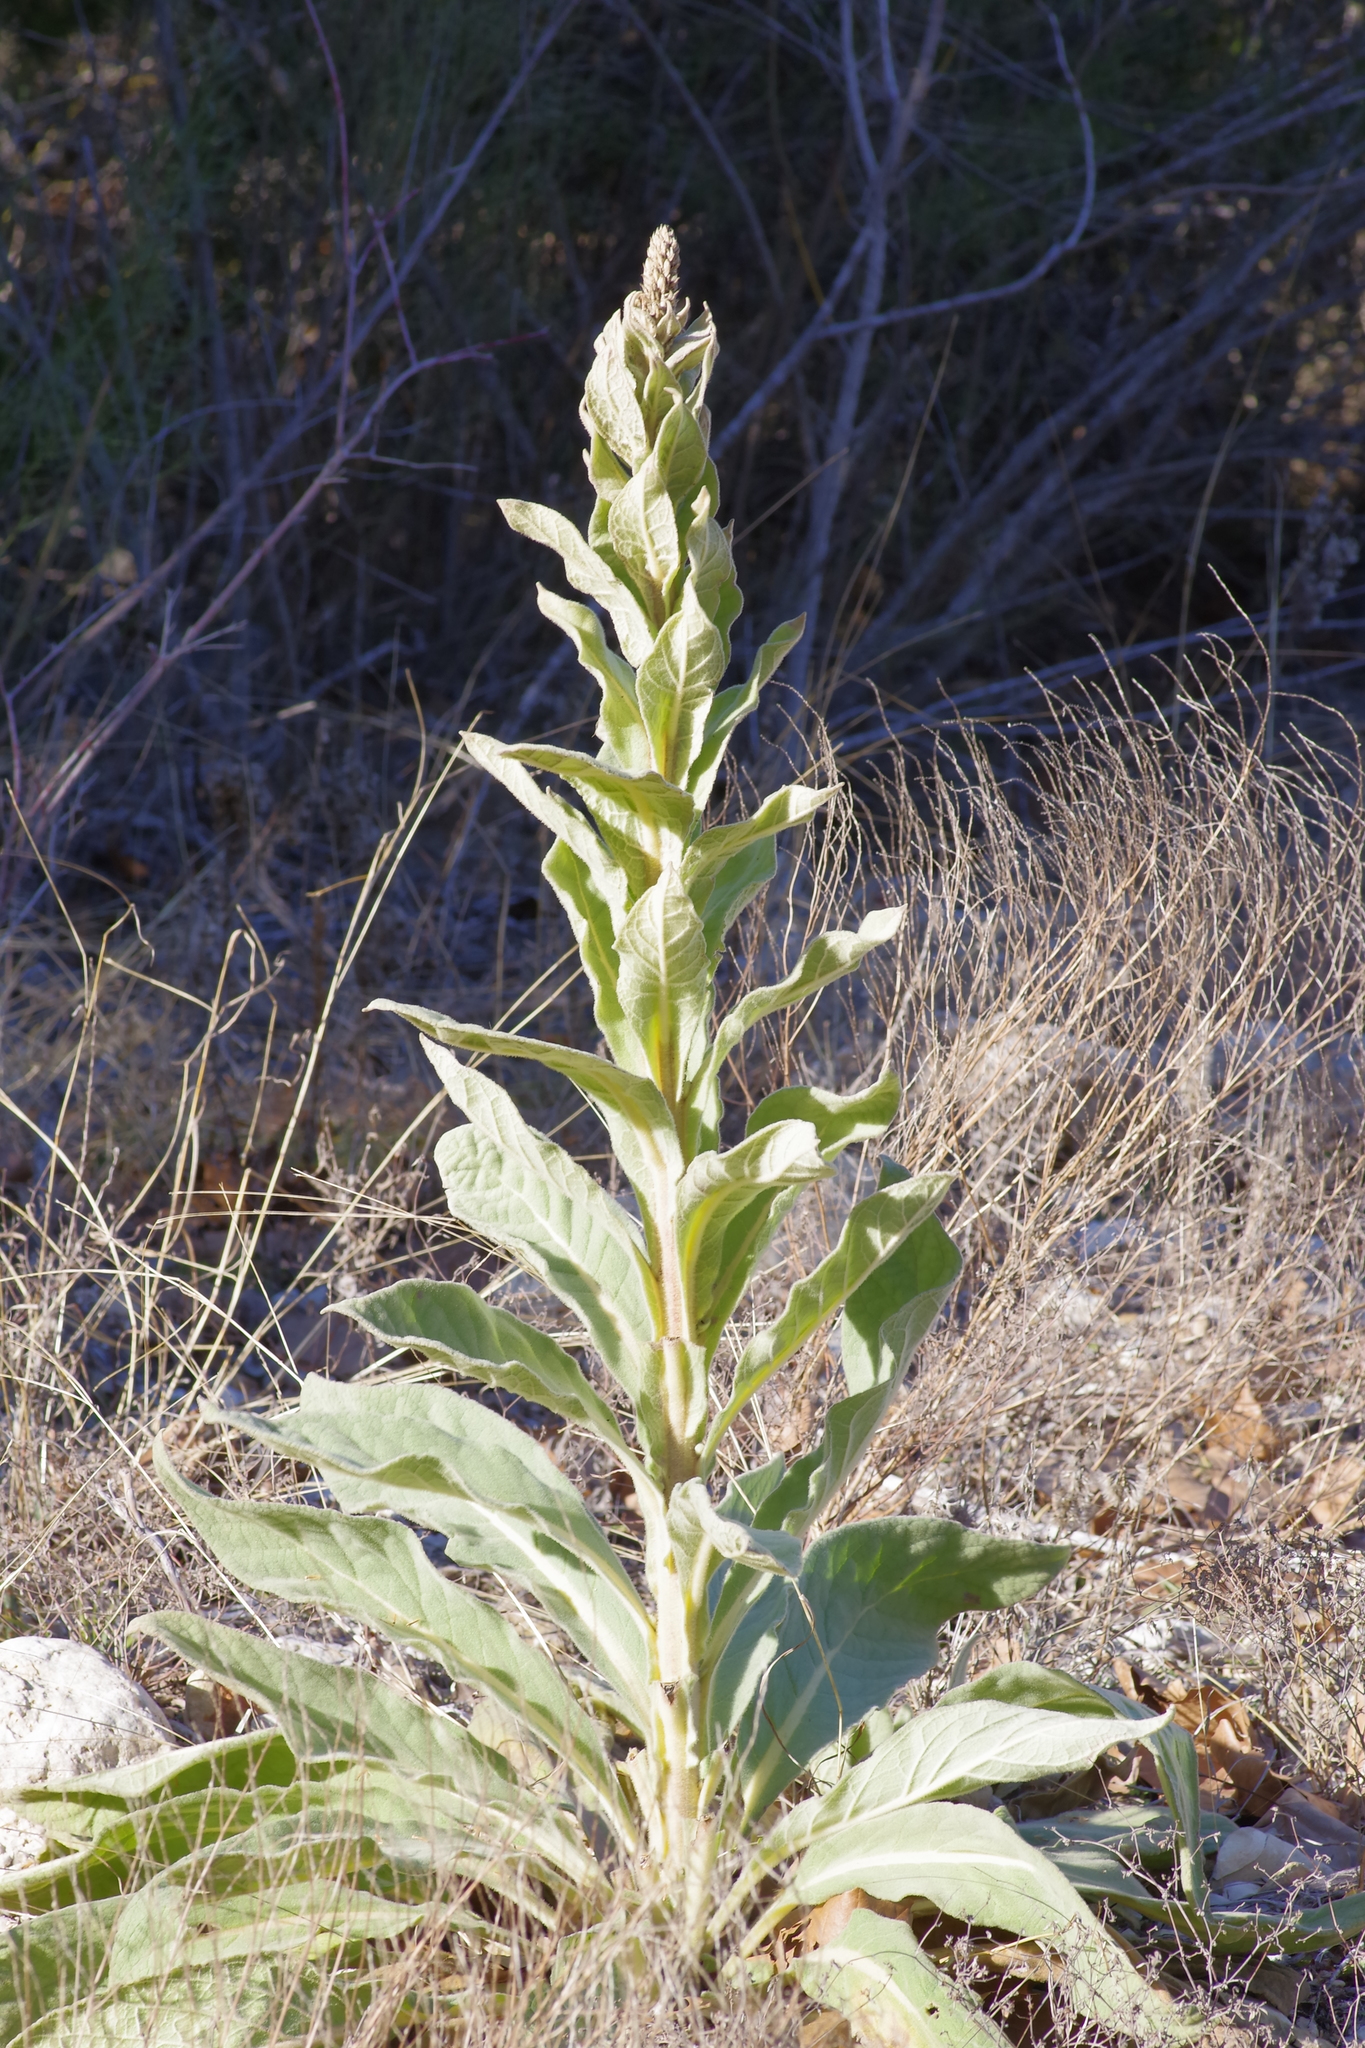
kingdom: Plantae
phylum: Tracheophyta
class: Magnoliopsida
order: Lamiales
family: Scrophulariaceae
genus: Verbascum
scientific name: Verbascum thapsus
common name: Common mullein
